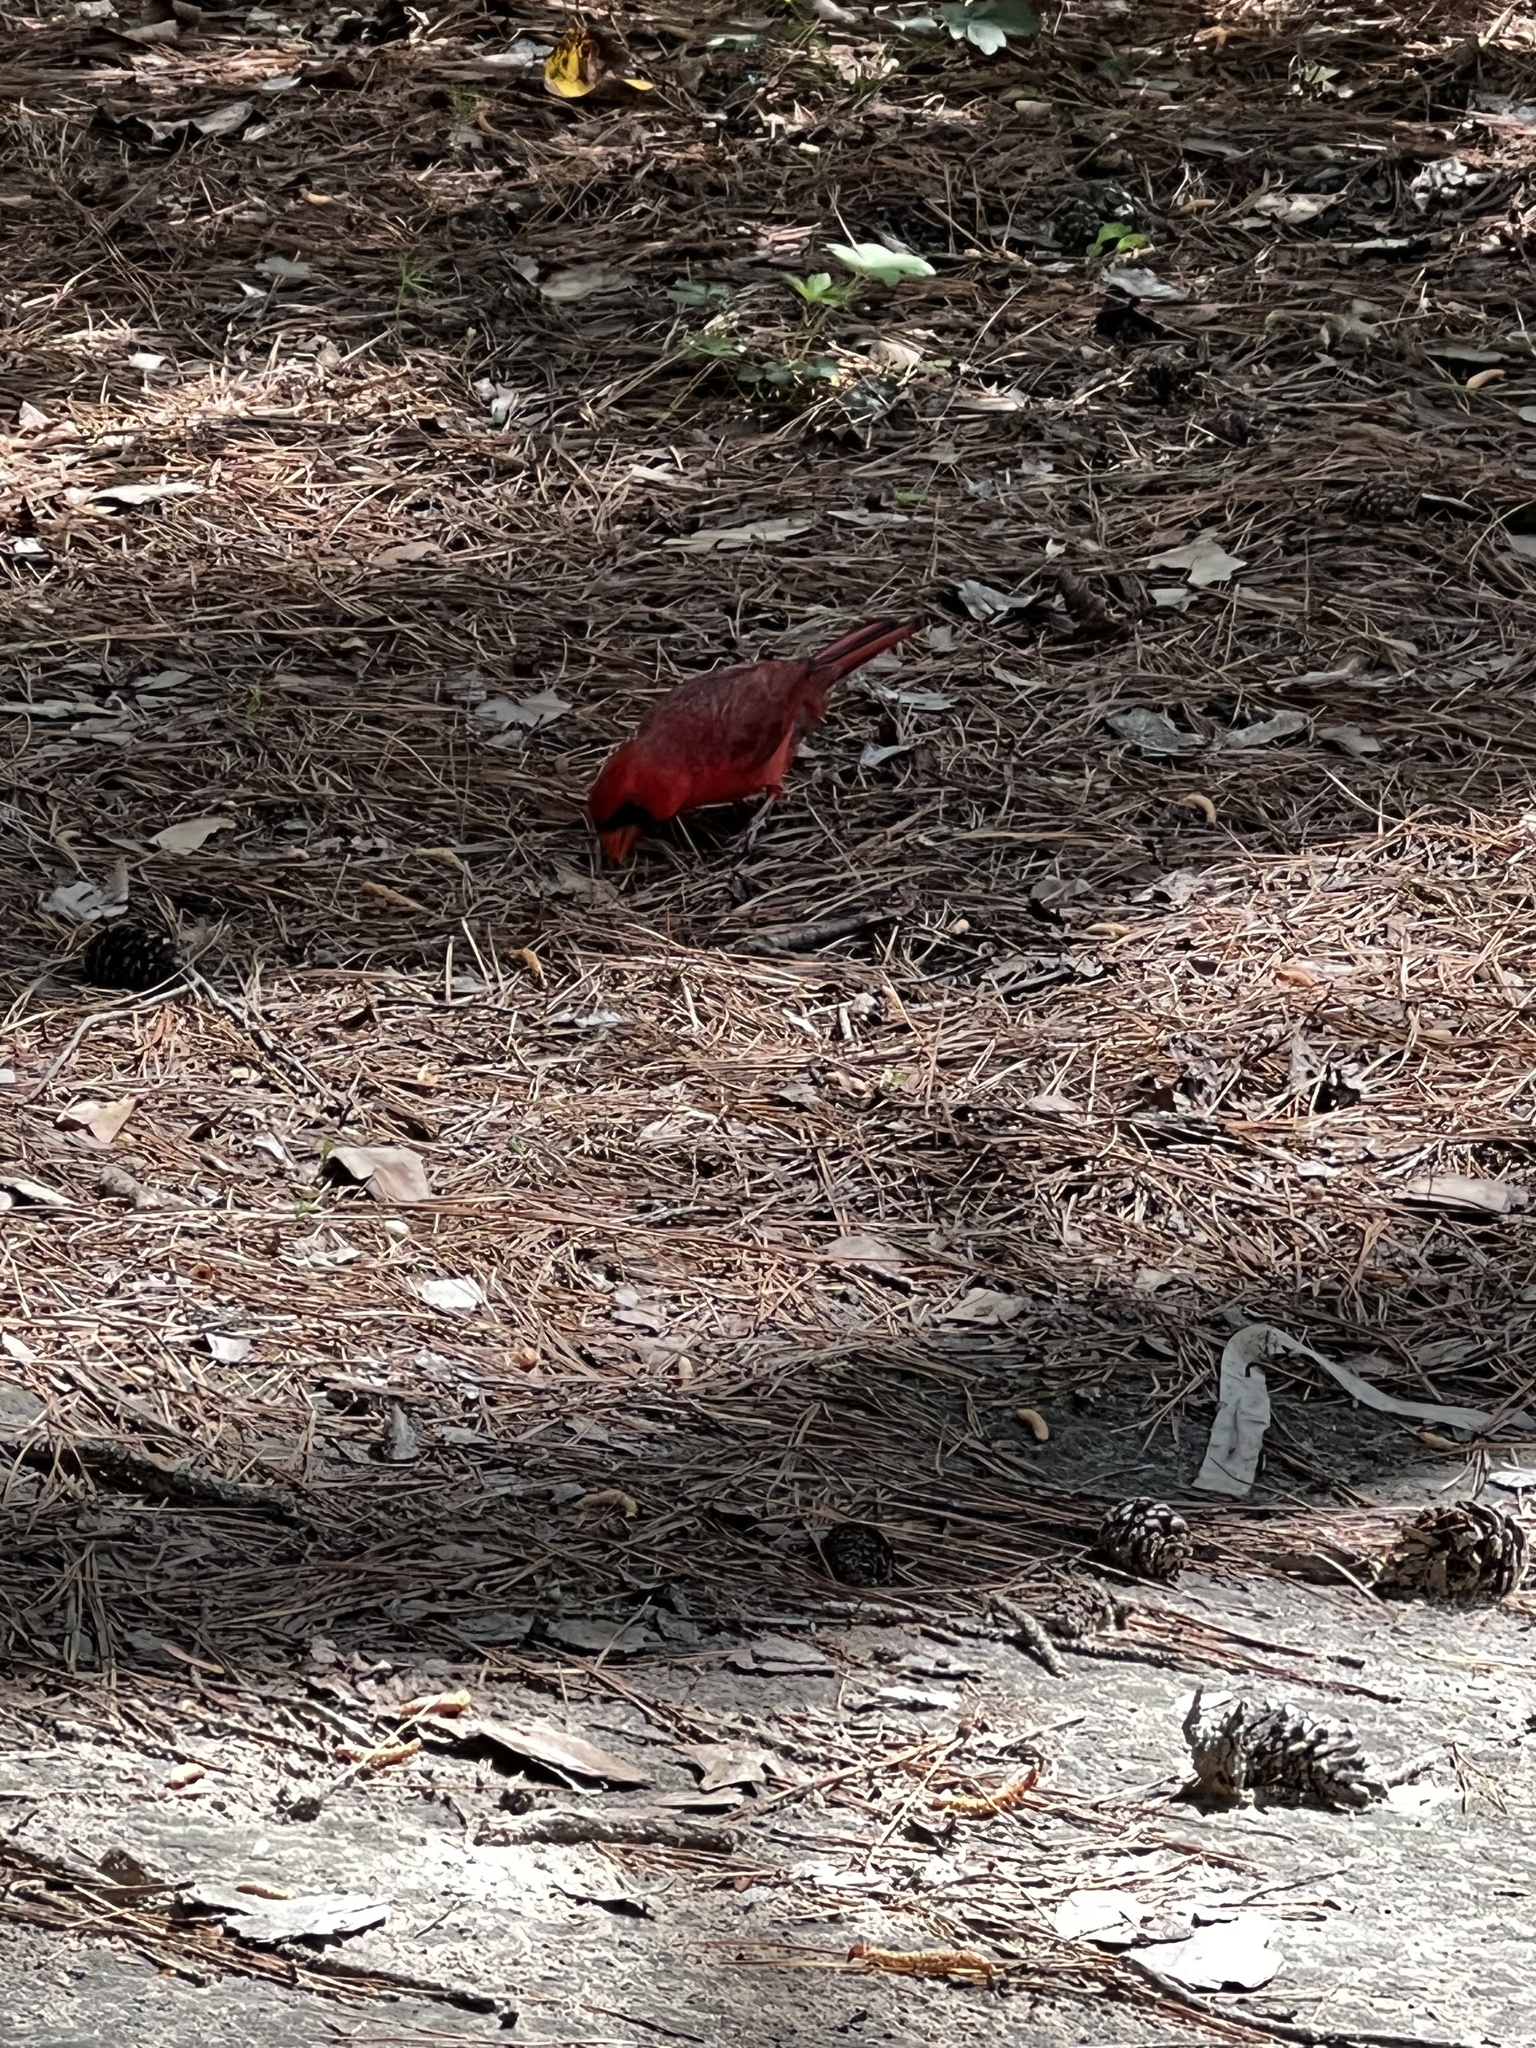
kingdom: Animalia
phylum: Chordata
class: Aves
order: Passeriformes
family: Cardinalidae
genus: Cardinalis
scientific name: Cardinalis cardinalis
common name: Northern cardinal
